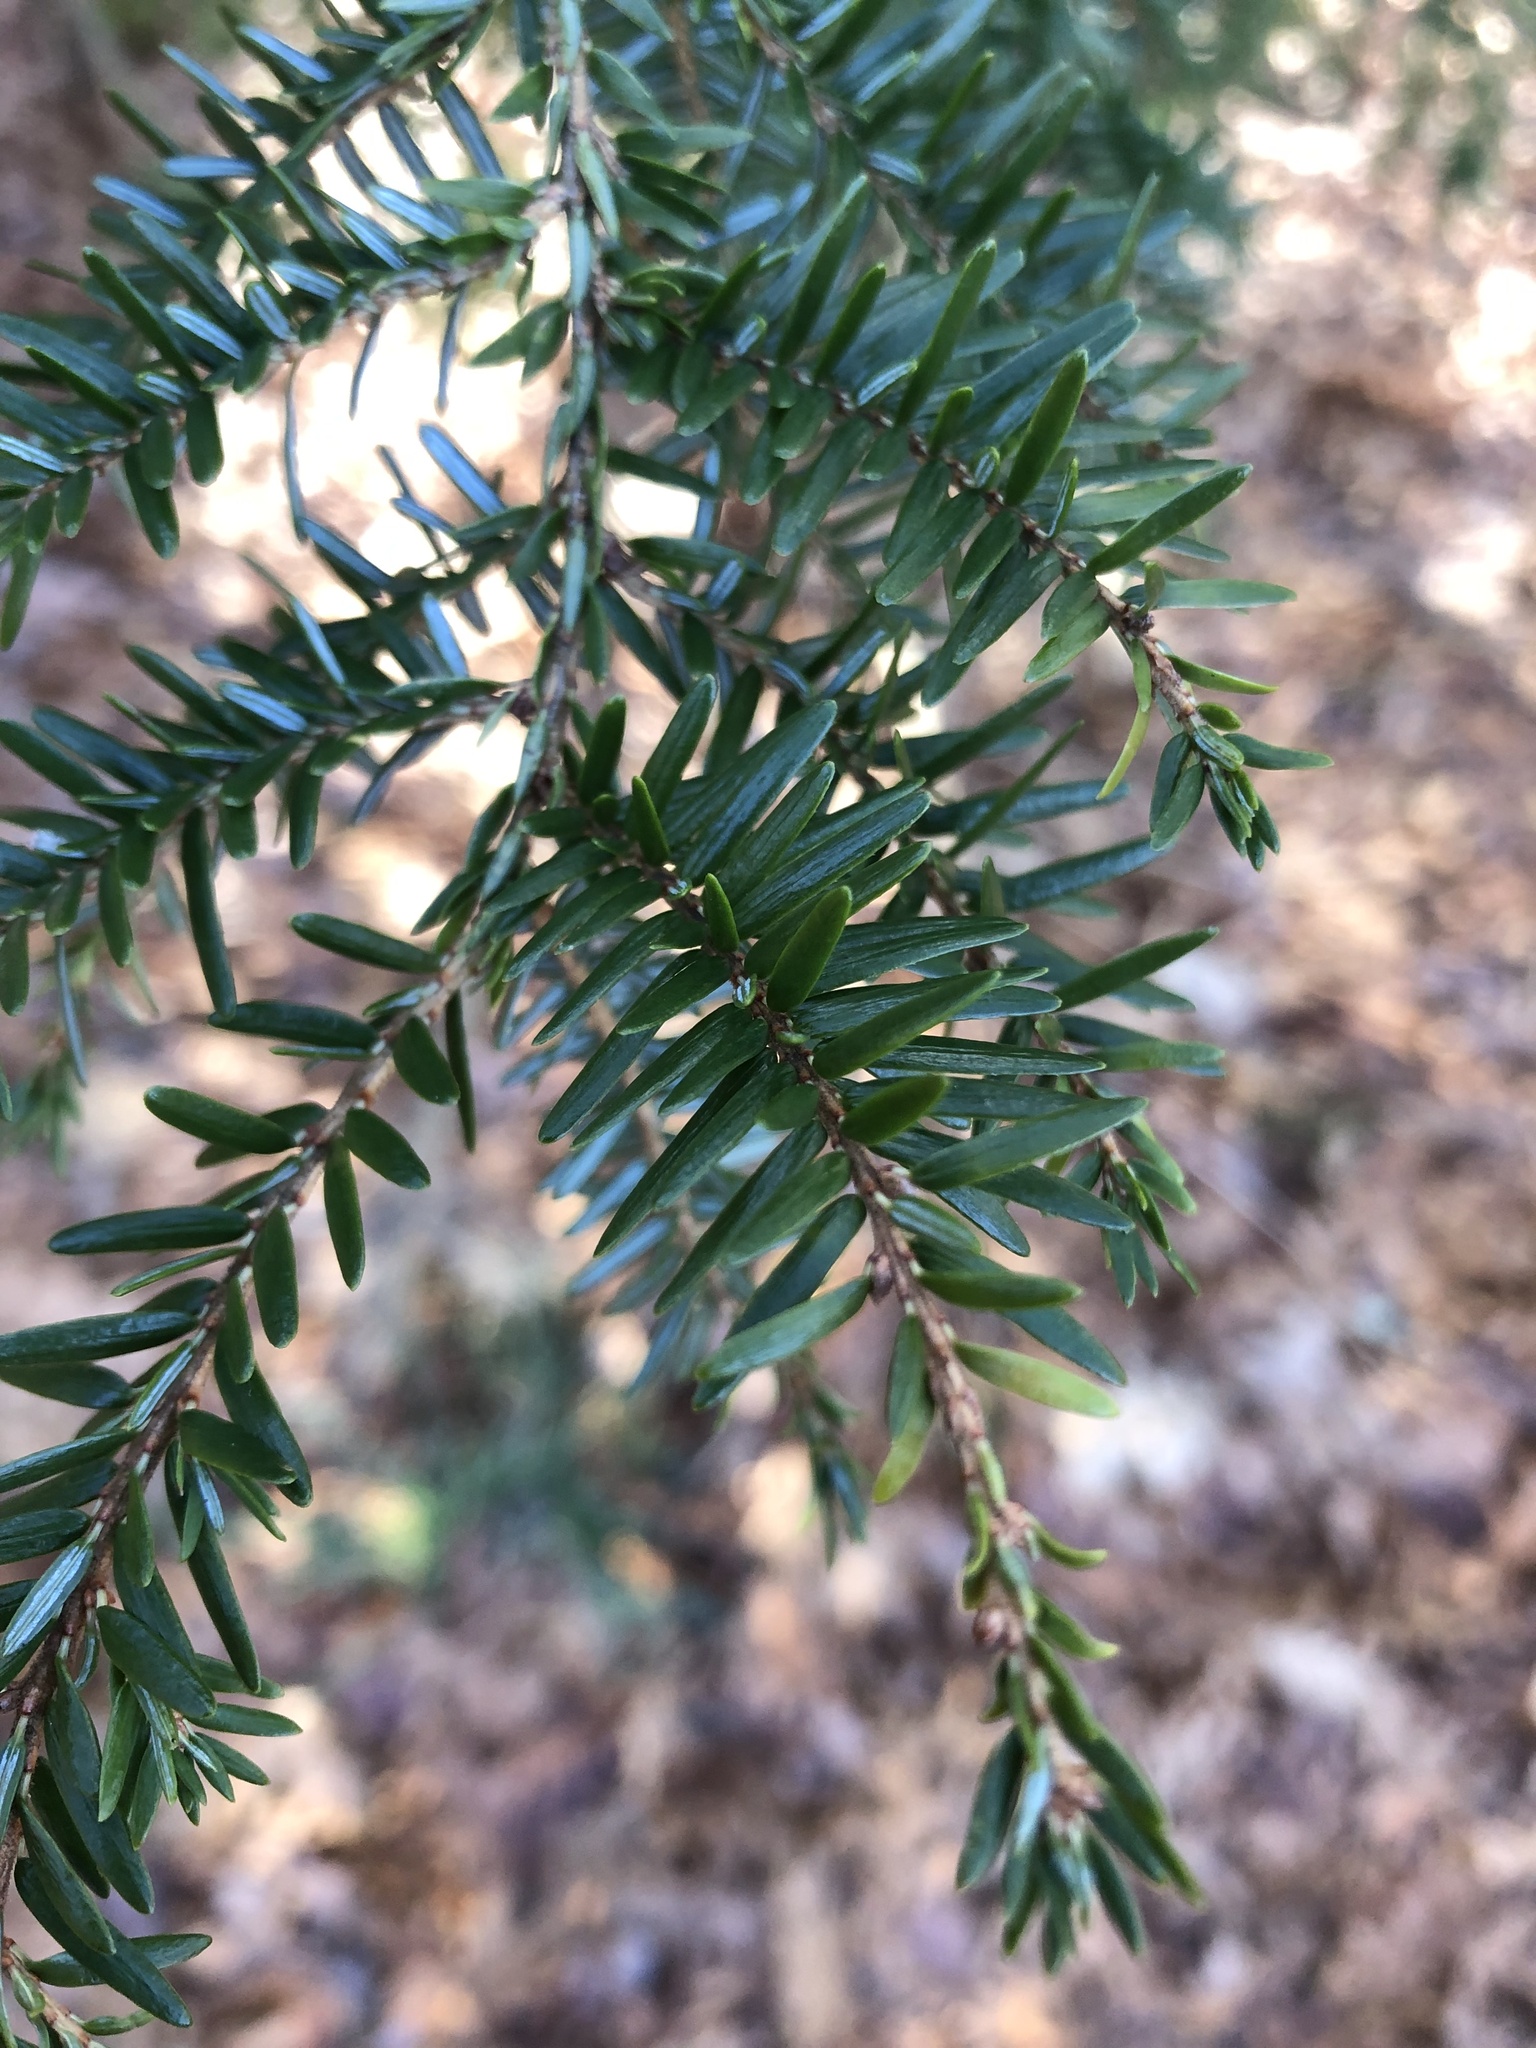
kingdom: Plantae
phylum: Tracheophyta
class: Pinopsida
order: Pinales
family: Pinaceae
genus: Tsuga
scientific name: Tsuga canadensis
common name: Eastern hemlock
